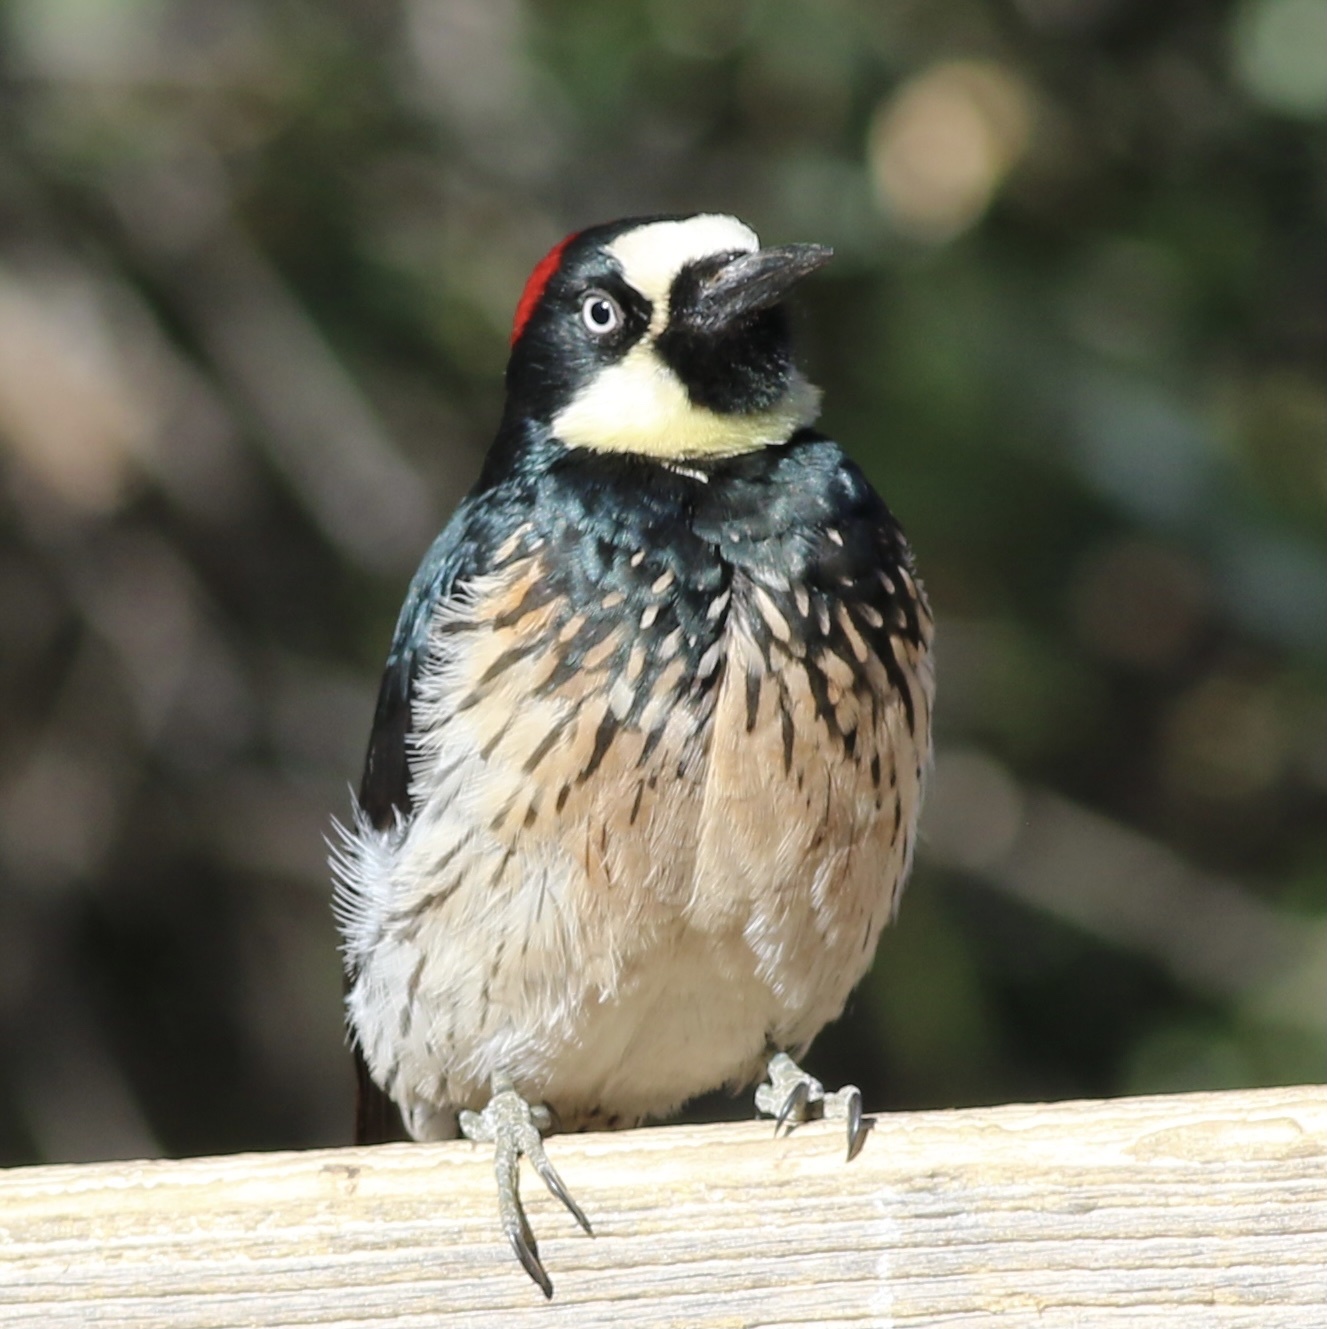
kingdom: Animalia
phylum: Chordata
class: Aves
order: Piciformes
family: Picidae
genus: Melanerpes
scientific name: Melanerpes formicivorus
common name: Acorn woodpecker
